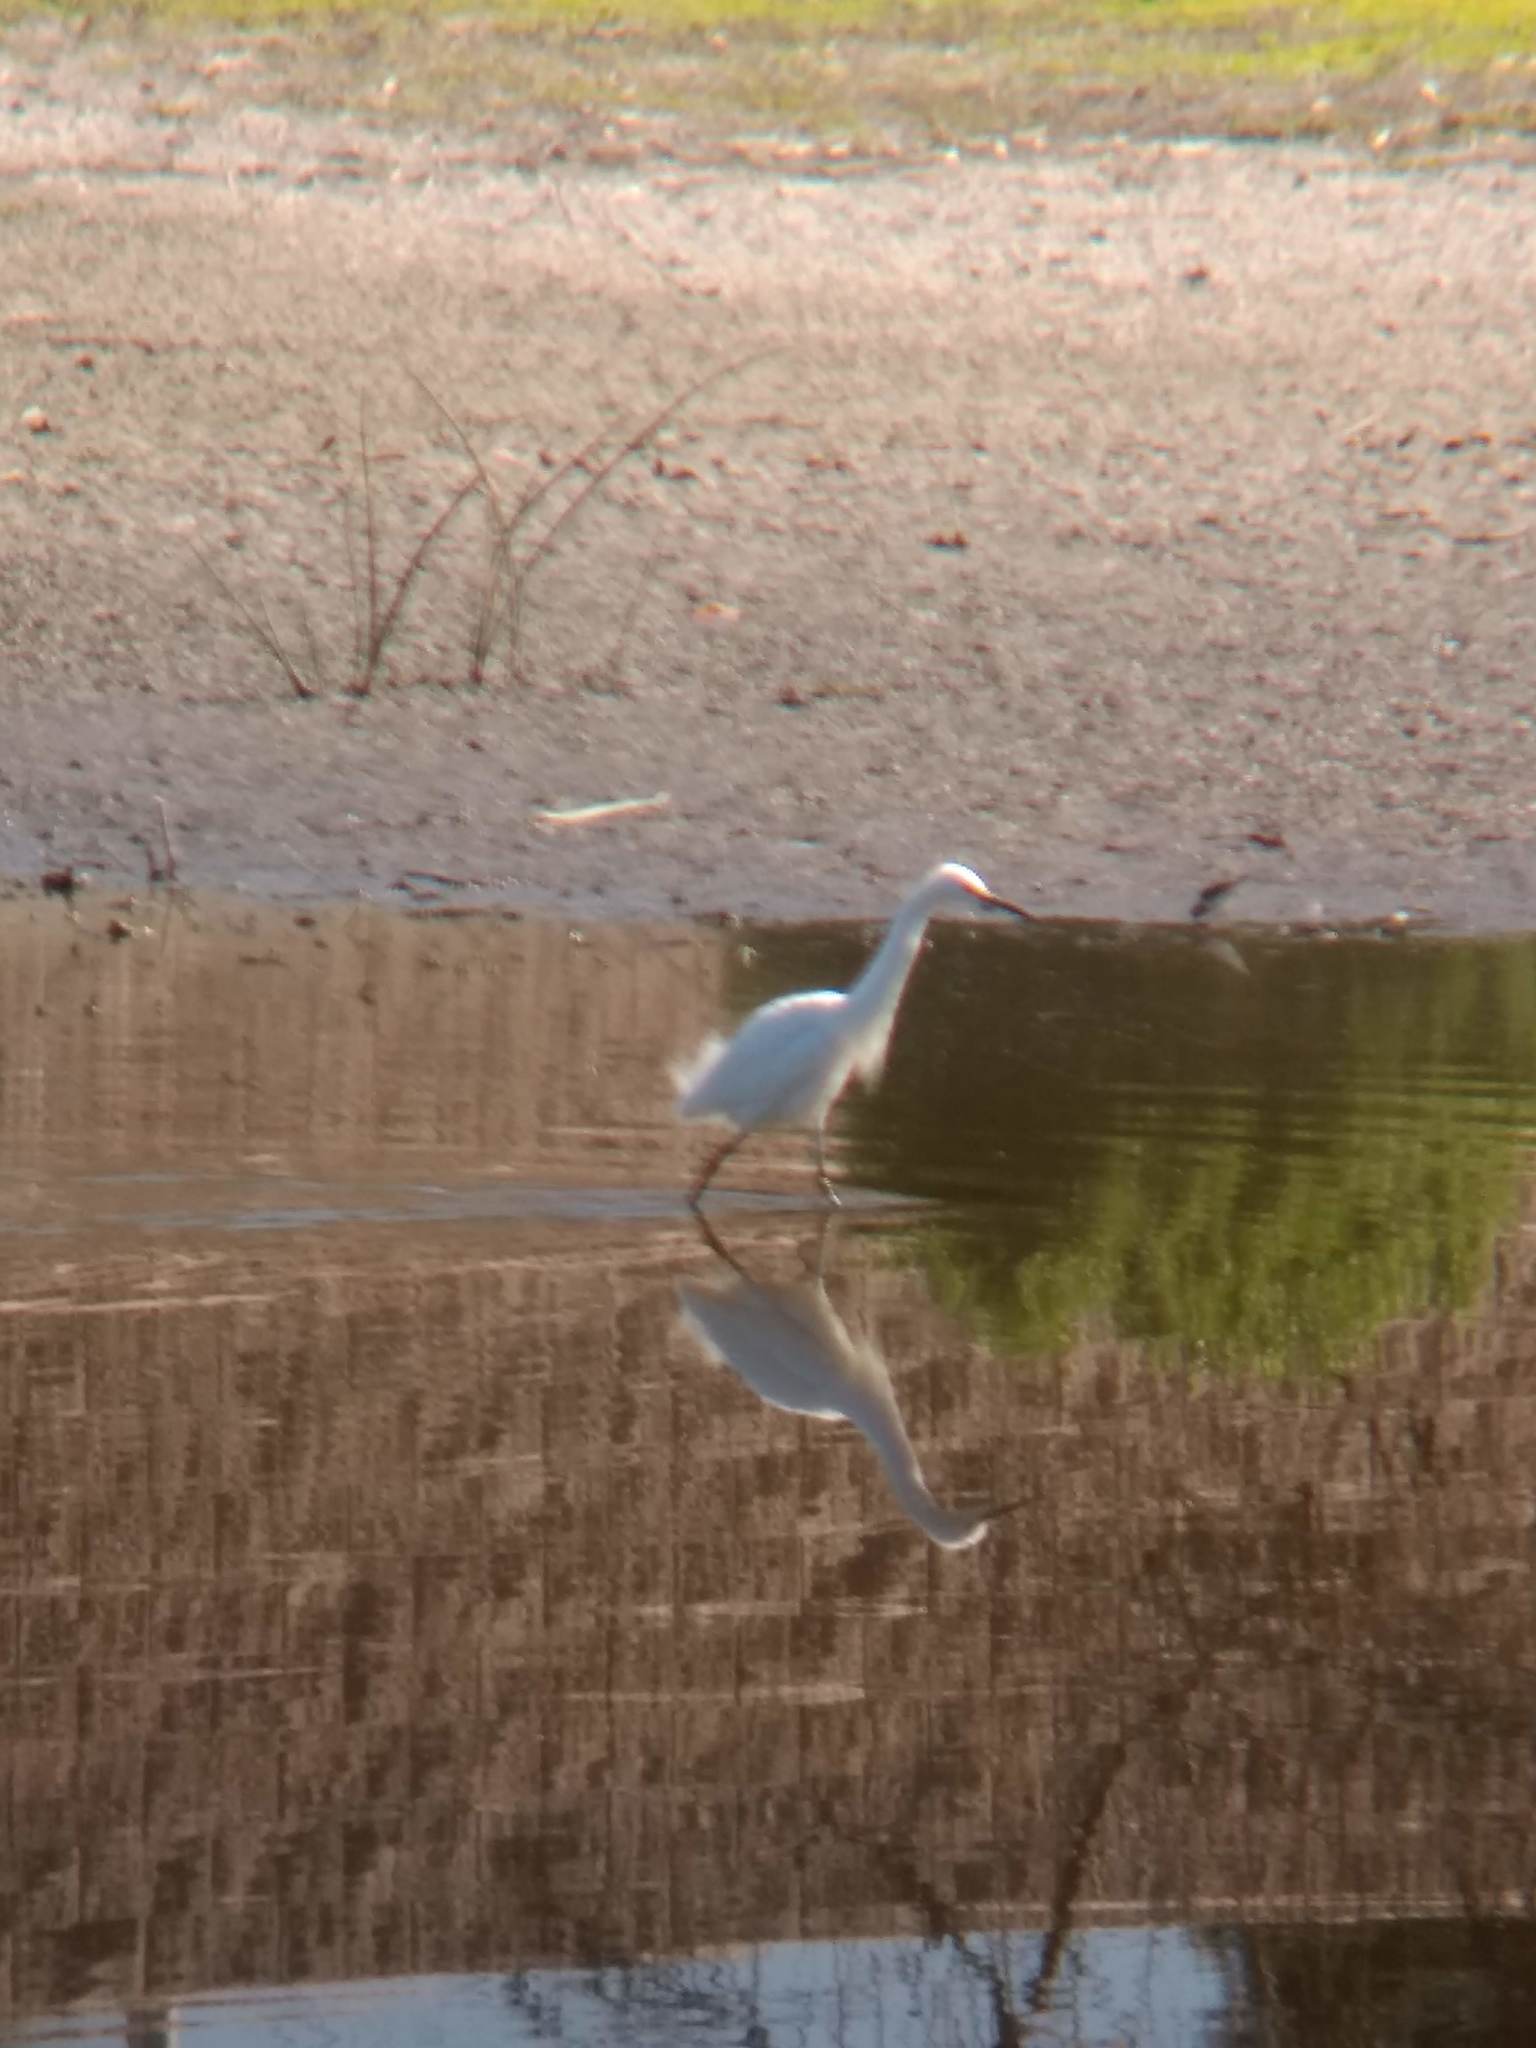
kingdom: Animalia
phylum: Chordata
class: Aves
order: Pelecaniformes
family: Ardeidae
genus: Egretta
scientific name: Egretta thula
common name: Snowy egret
